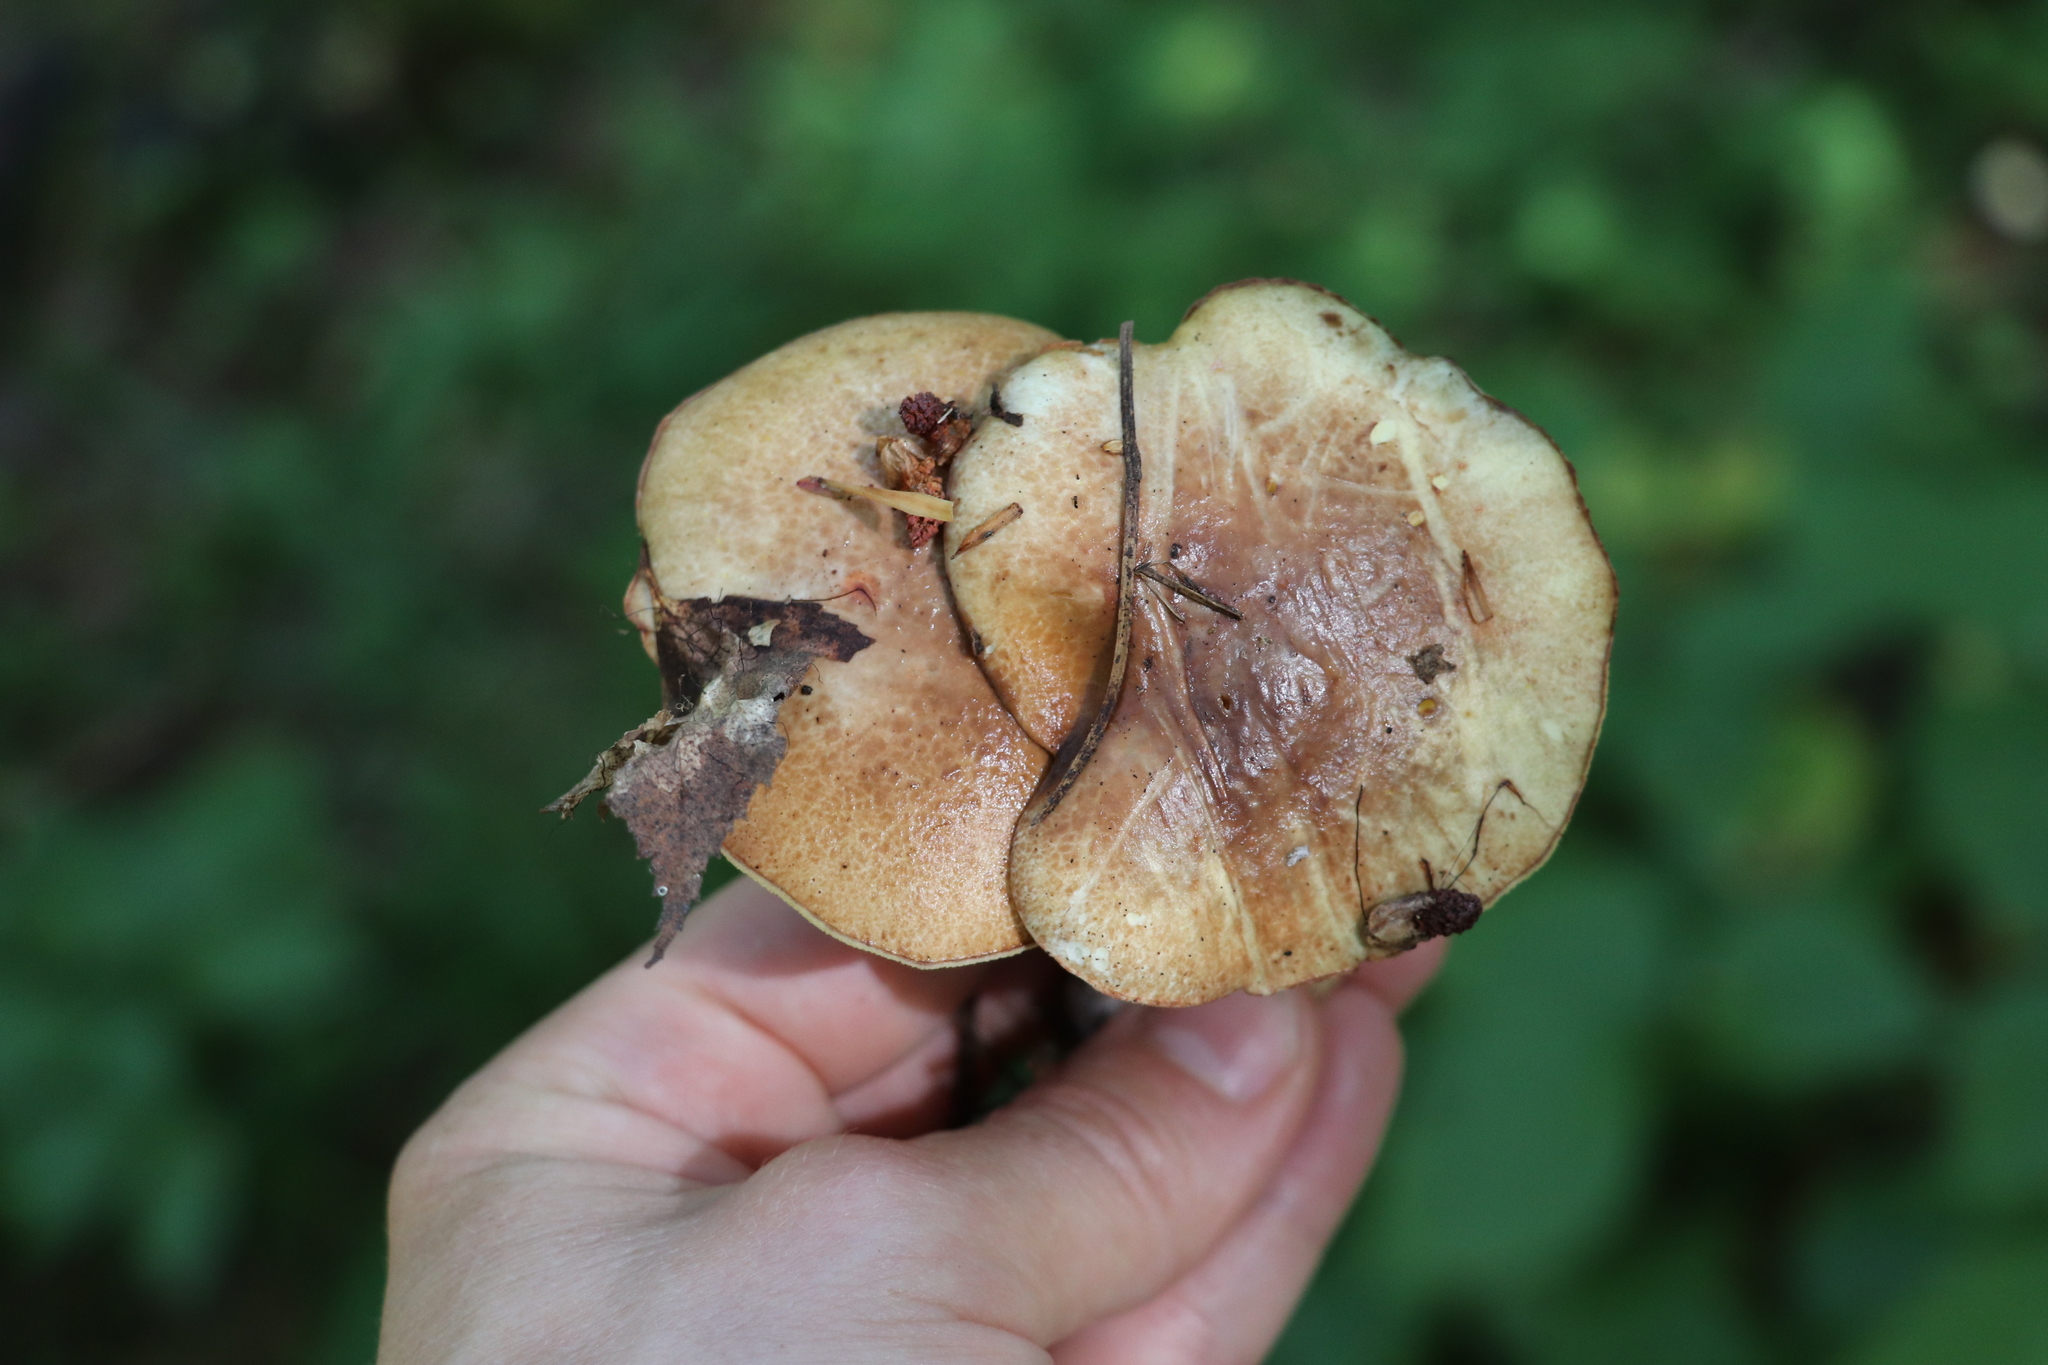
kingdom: Fungi
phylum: Basidiomycota
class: Agaricomycetes
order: Boletales
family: Suillaceae
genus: Suillus
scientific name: Suillus placidus
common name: Slippery white bolete
